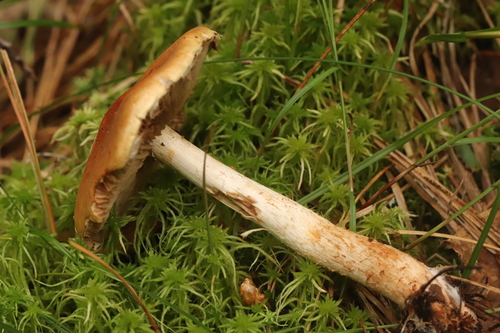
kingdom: Fungi
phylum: Basidiomycota
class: Agaricomycetes
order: Agaricales
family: Strophariaceae
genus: Hypholoma
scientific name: Hypholoma lateritium
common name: Brick caps
